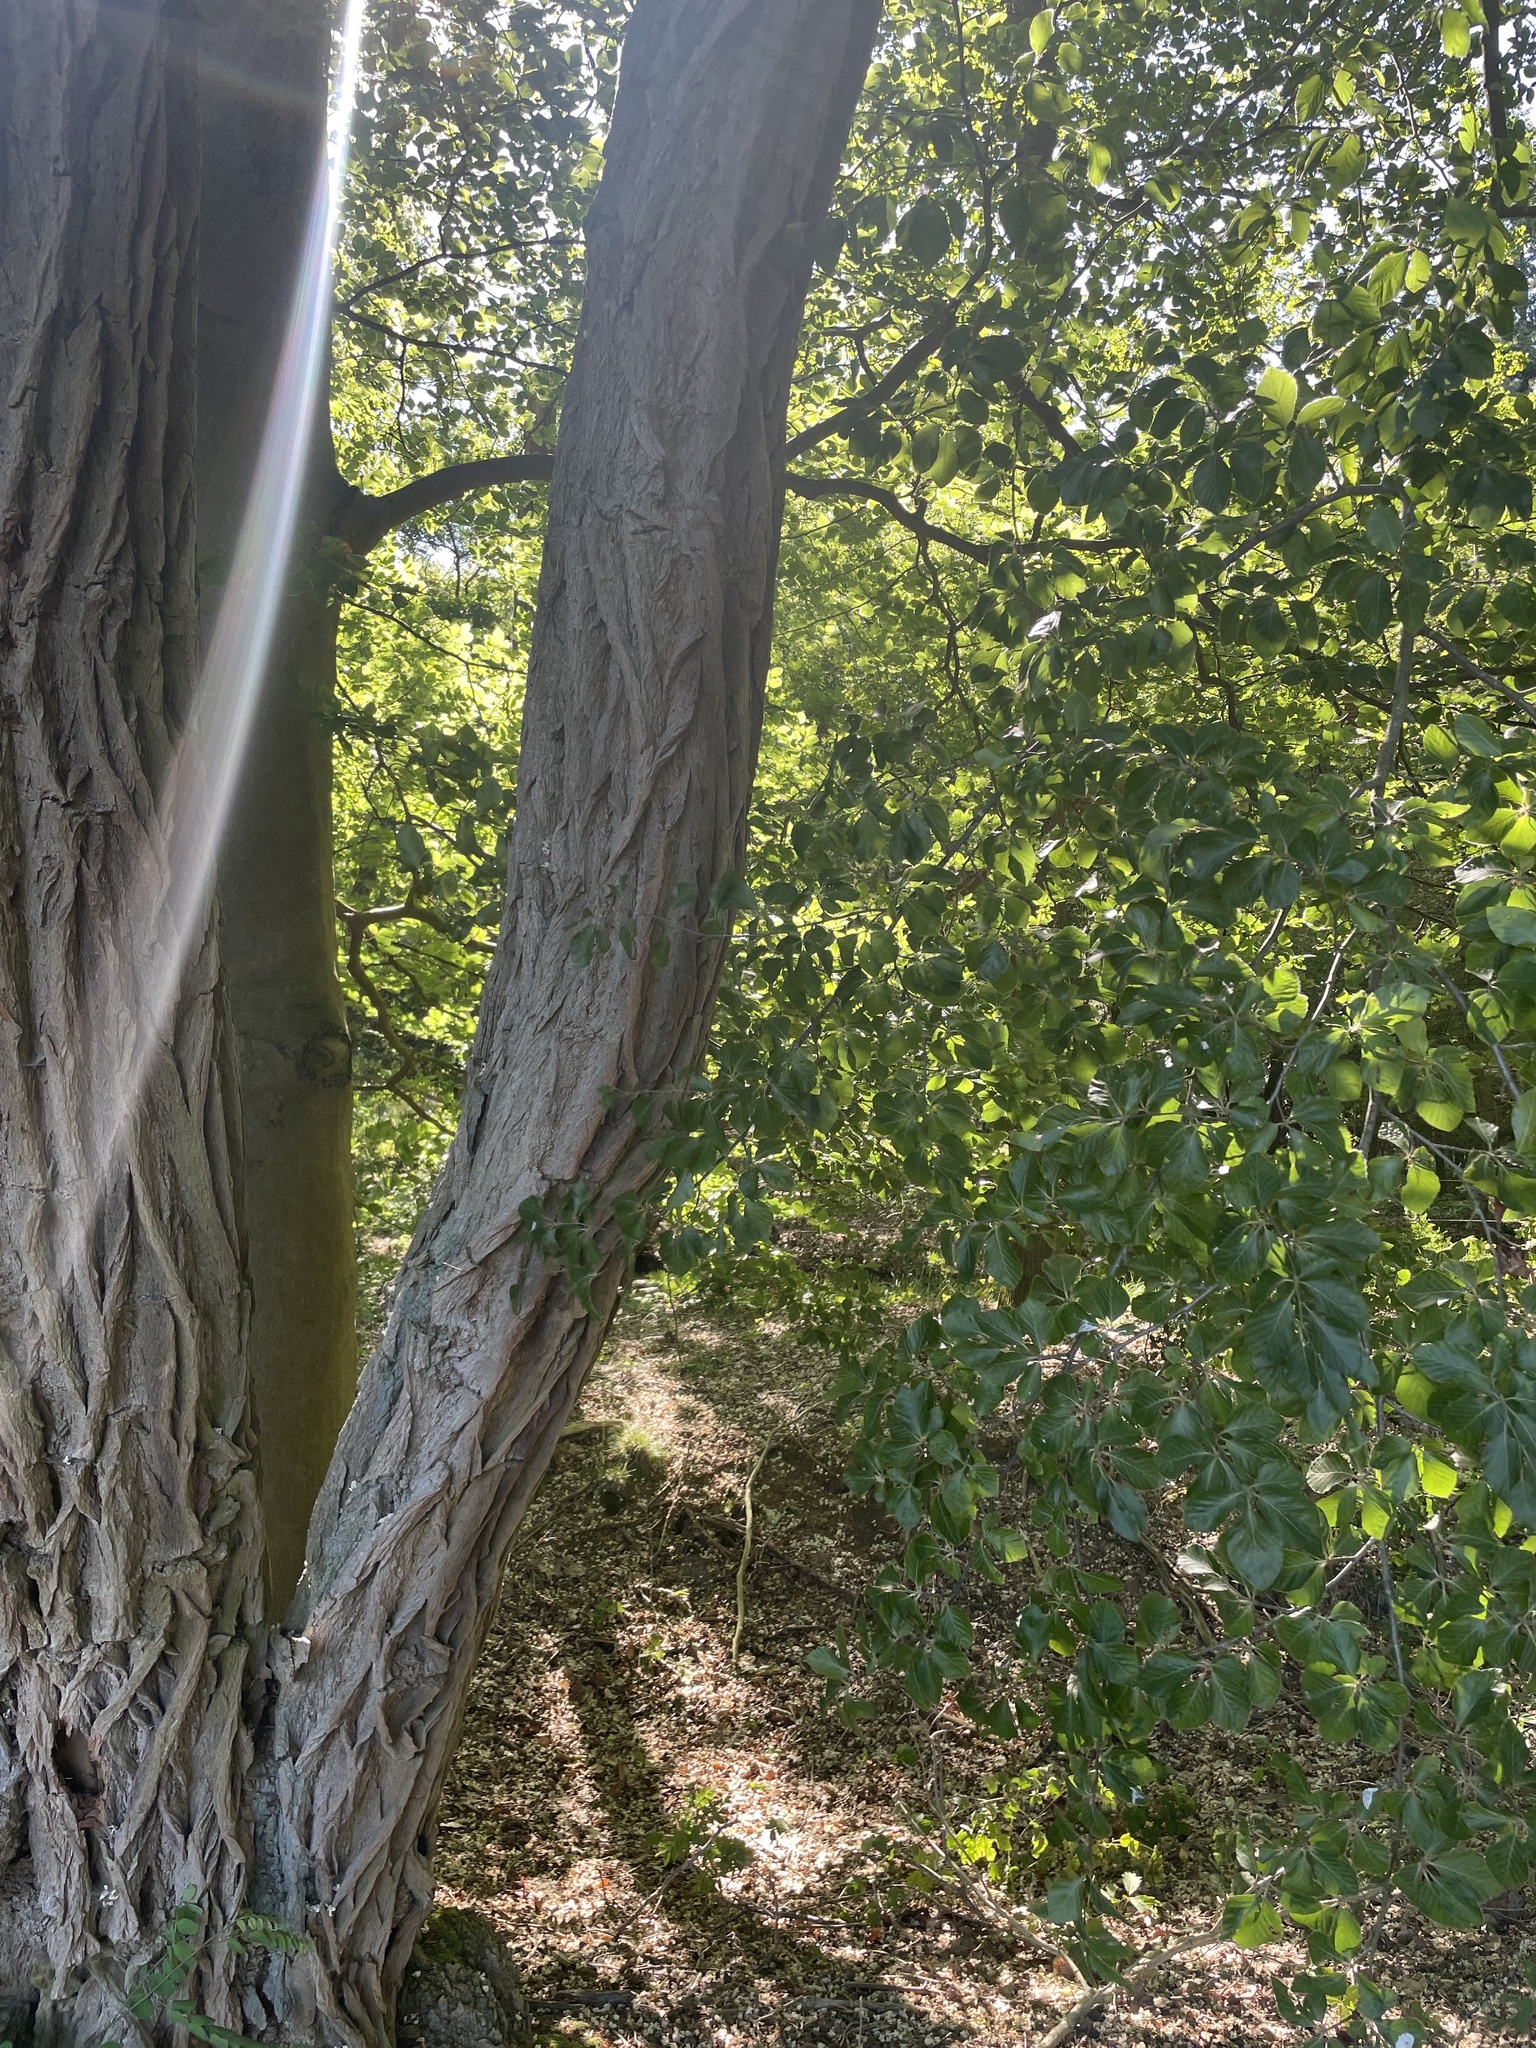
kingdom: Plantae
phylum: Tracheophyta
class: Magnoliopsida
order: Fagales
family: Fagaceae
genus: Fagus
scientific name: Fagus sylvatica
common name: Beech
